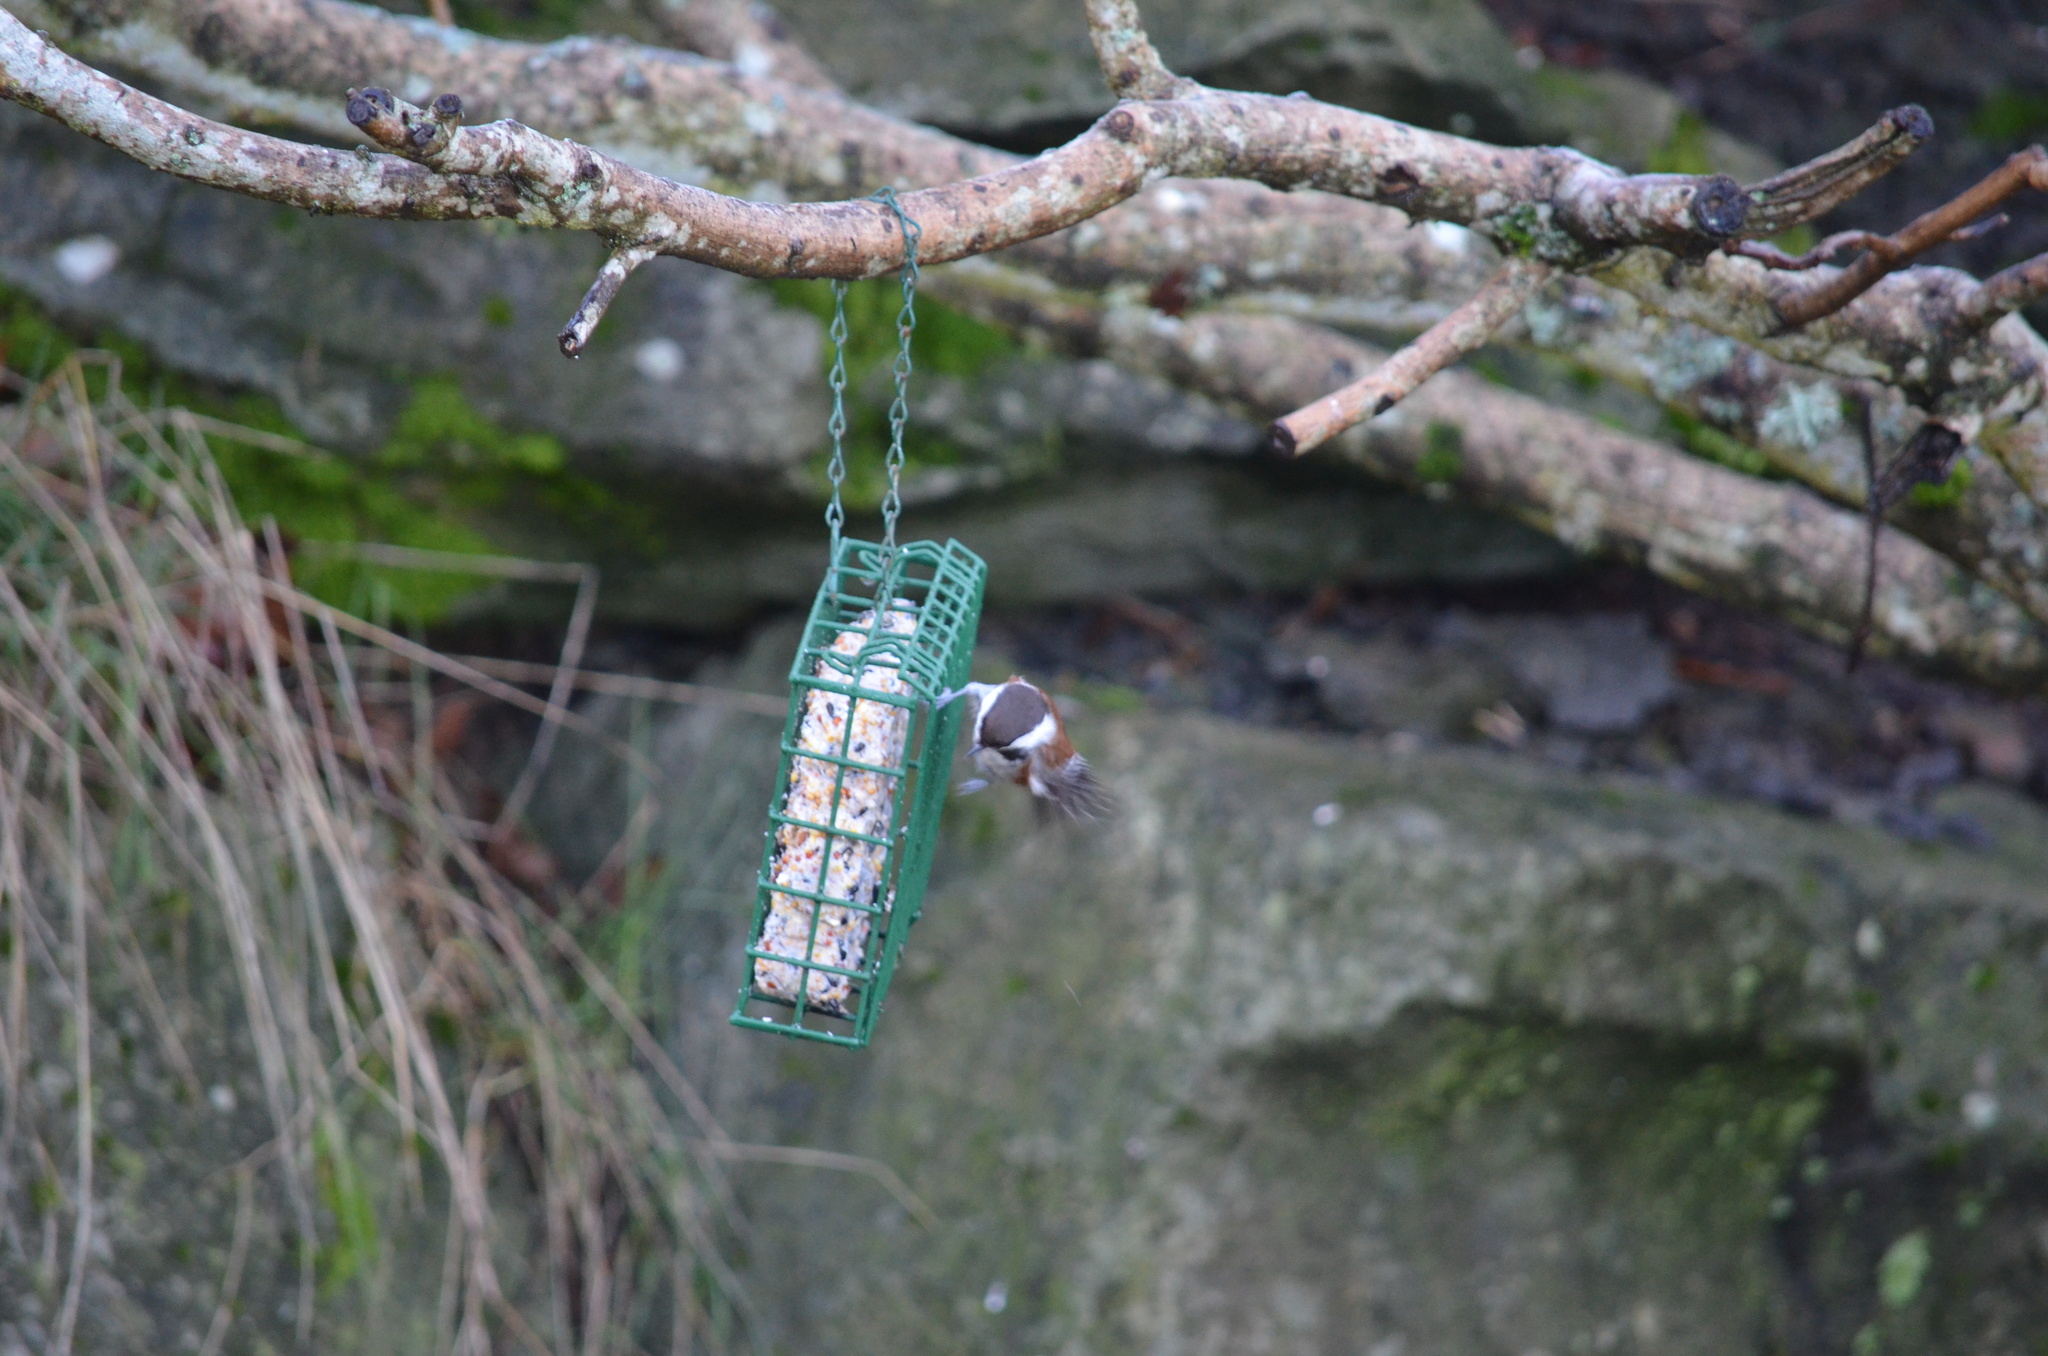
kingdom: Animalia
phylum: Chordata
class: Aves
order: Passeriformes
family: Paridae
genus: Poecile
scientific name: Poecile rufescens
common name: Chestnut-backed chickadee
